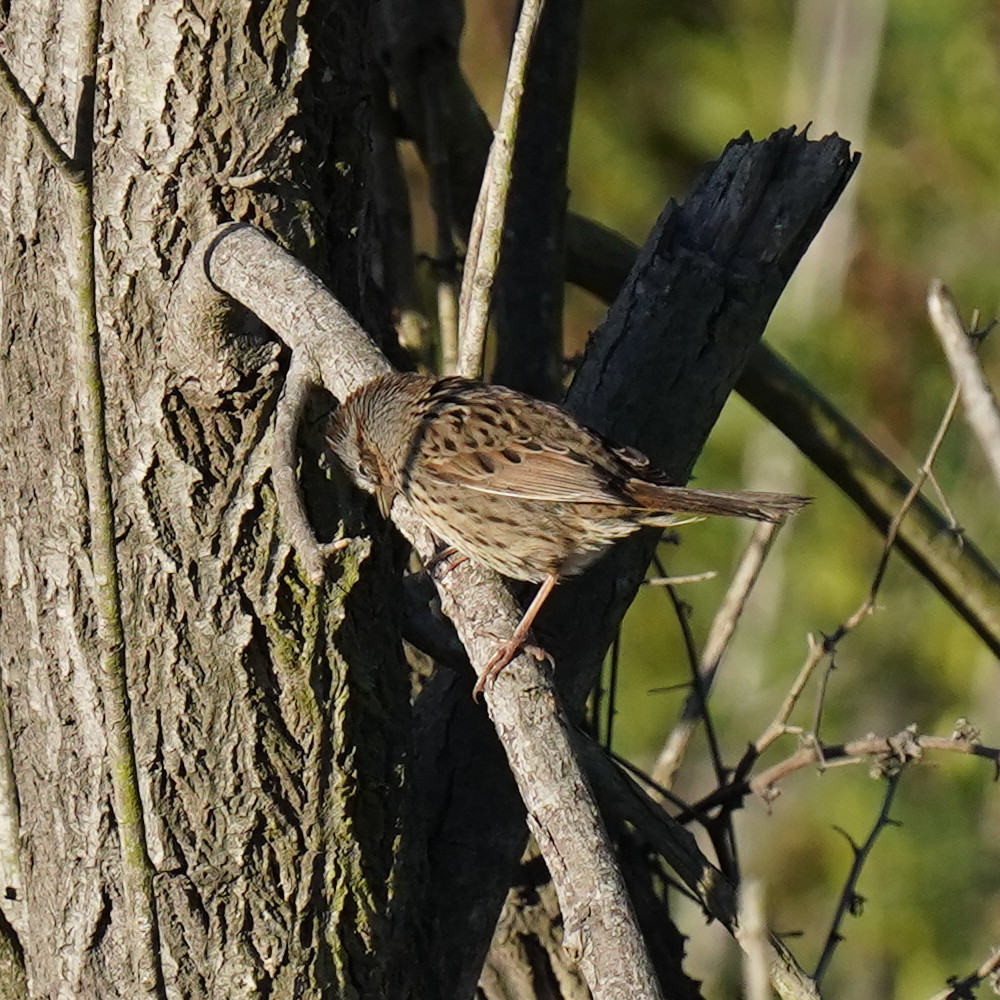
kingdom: Animalia
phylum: Chordata
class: Aves
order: Passeriformes
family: Passerellidae
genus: Melospiza
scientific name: Melospiza lincolnii
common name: Lincoln's sparrow
